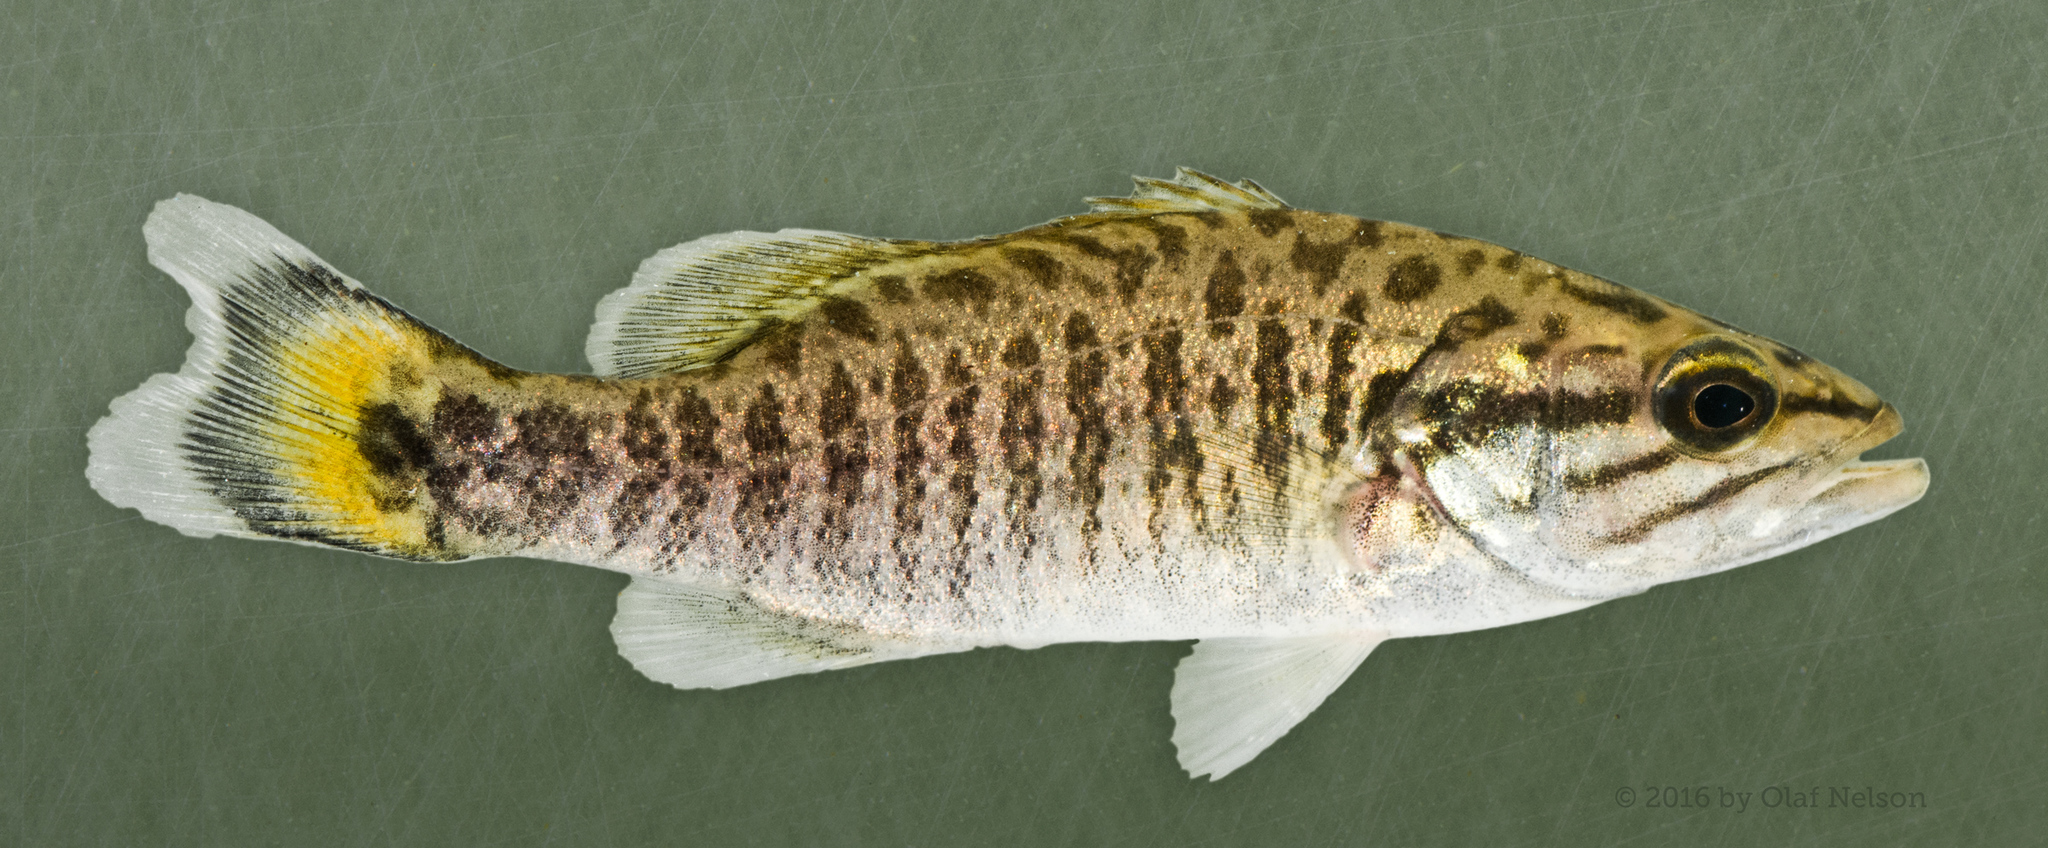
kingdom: Animalia
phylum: Chordata
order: Perciformes
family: Centrarchidae
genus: Micropterus
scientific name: Micropterus dolomieu
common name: Smallmouth bass
